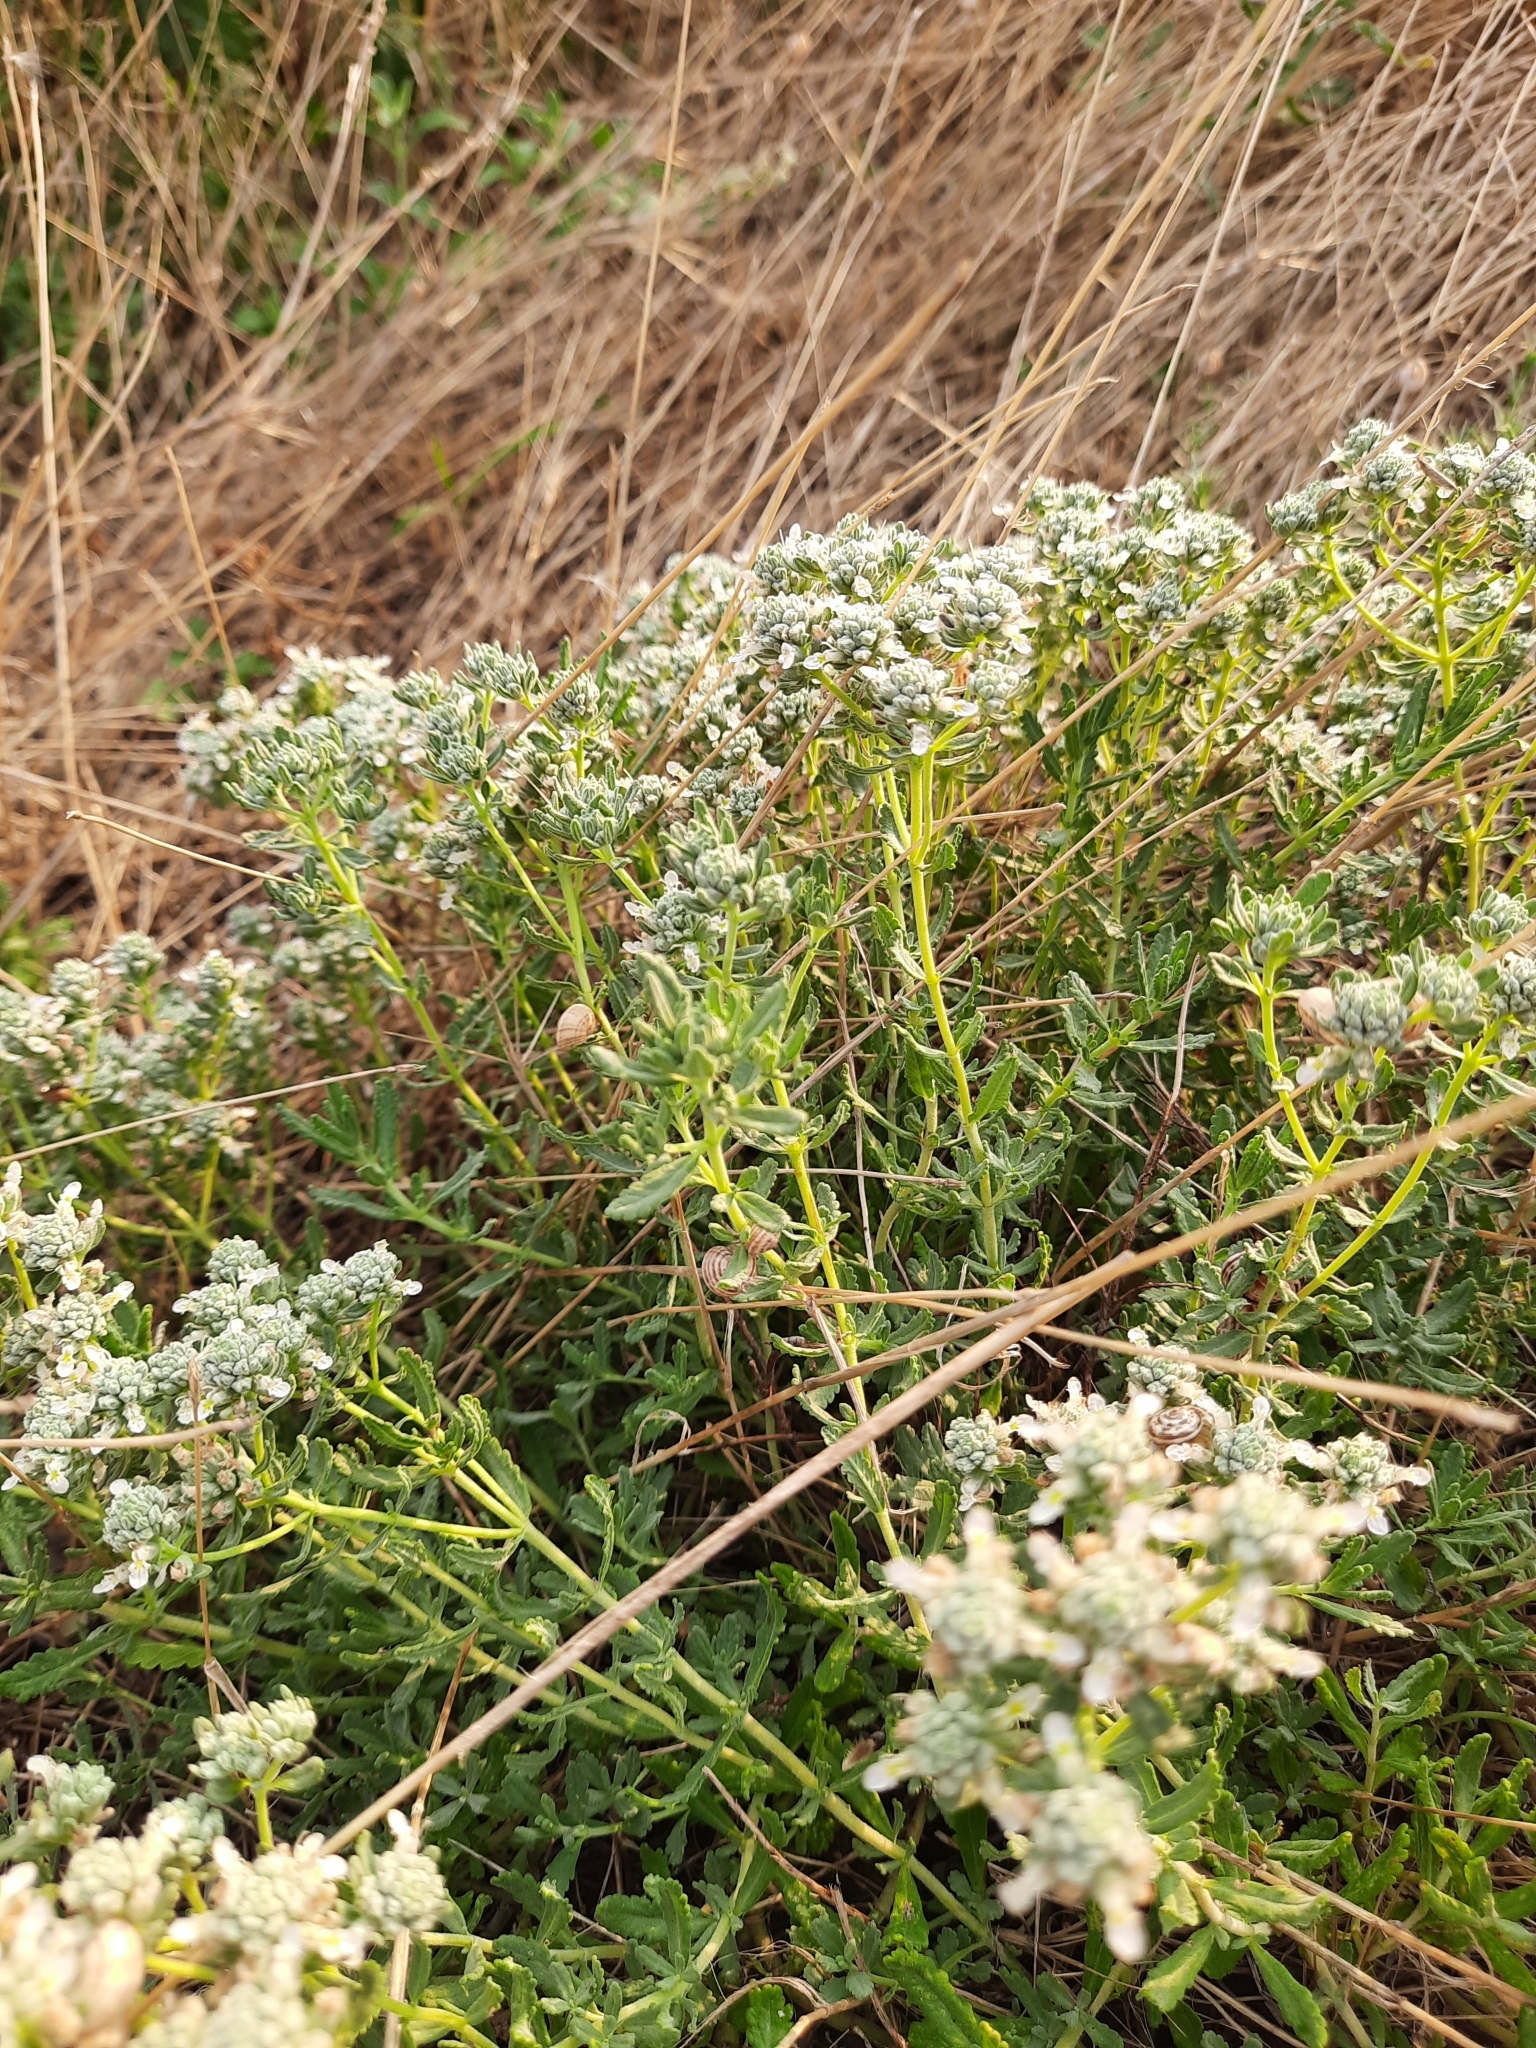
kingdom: Plantae
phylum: Tracheophyta
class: Magnoliopsida
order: Lamiales
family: Lamiaceae
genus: Teucrium
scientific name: Teucrium polium
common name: Poley
